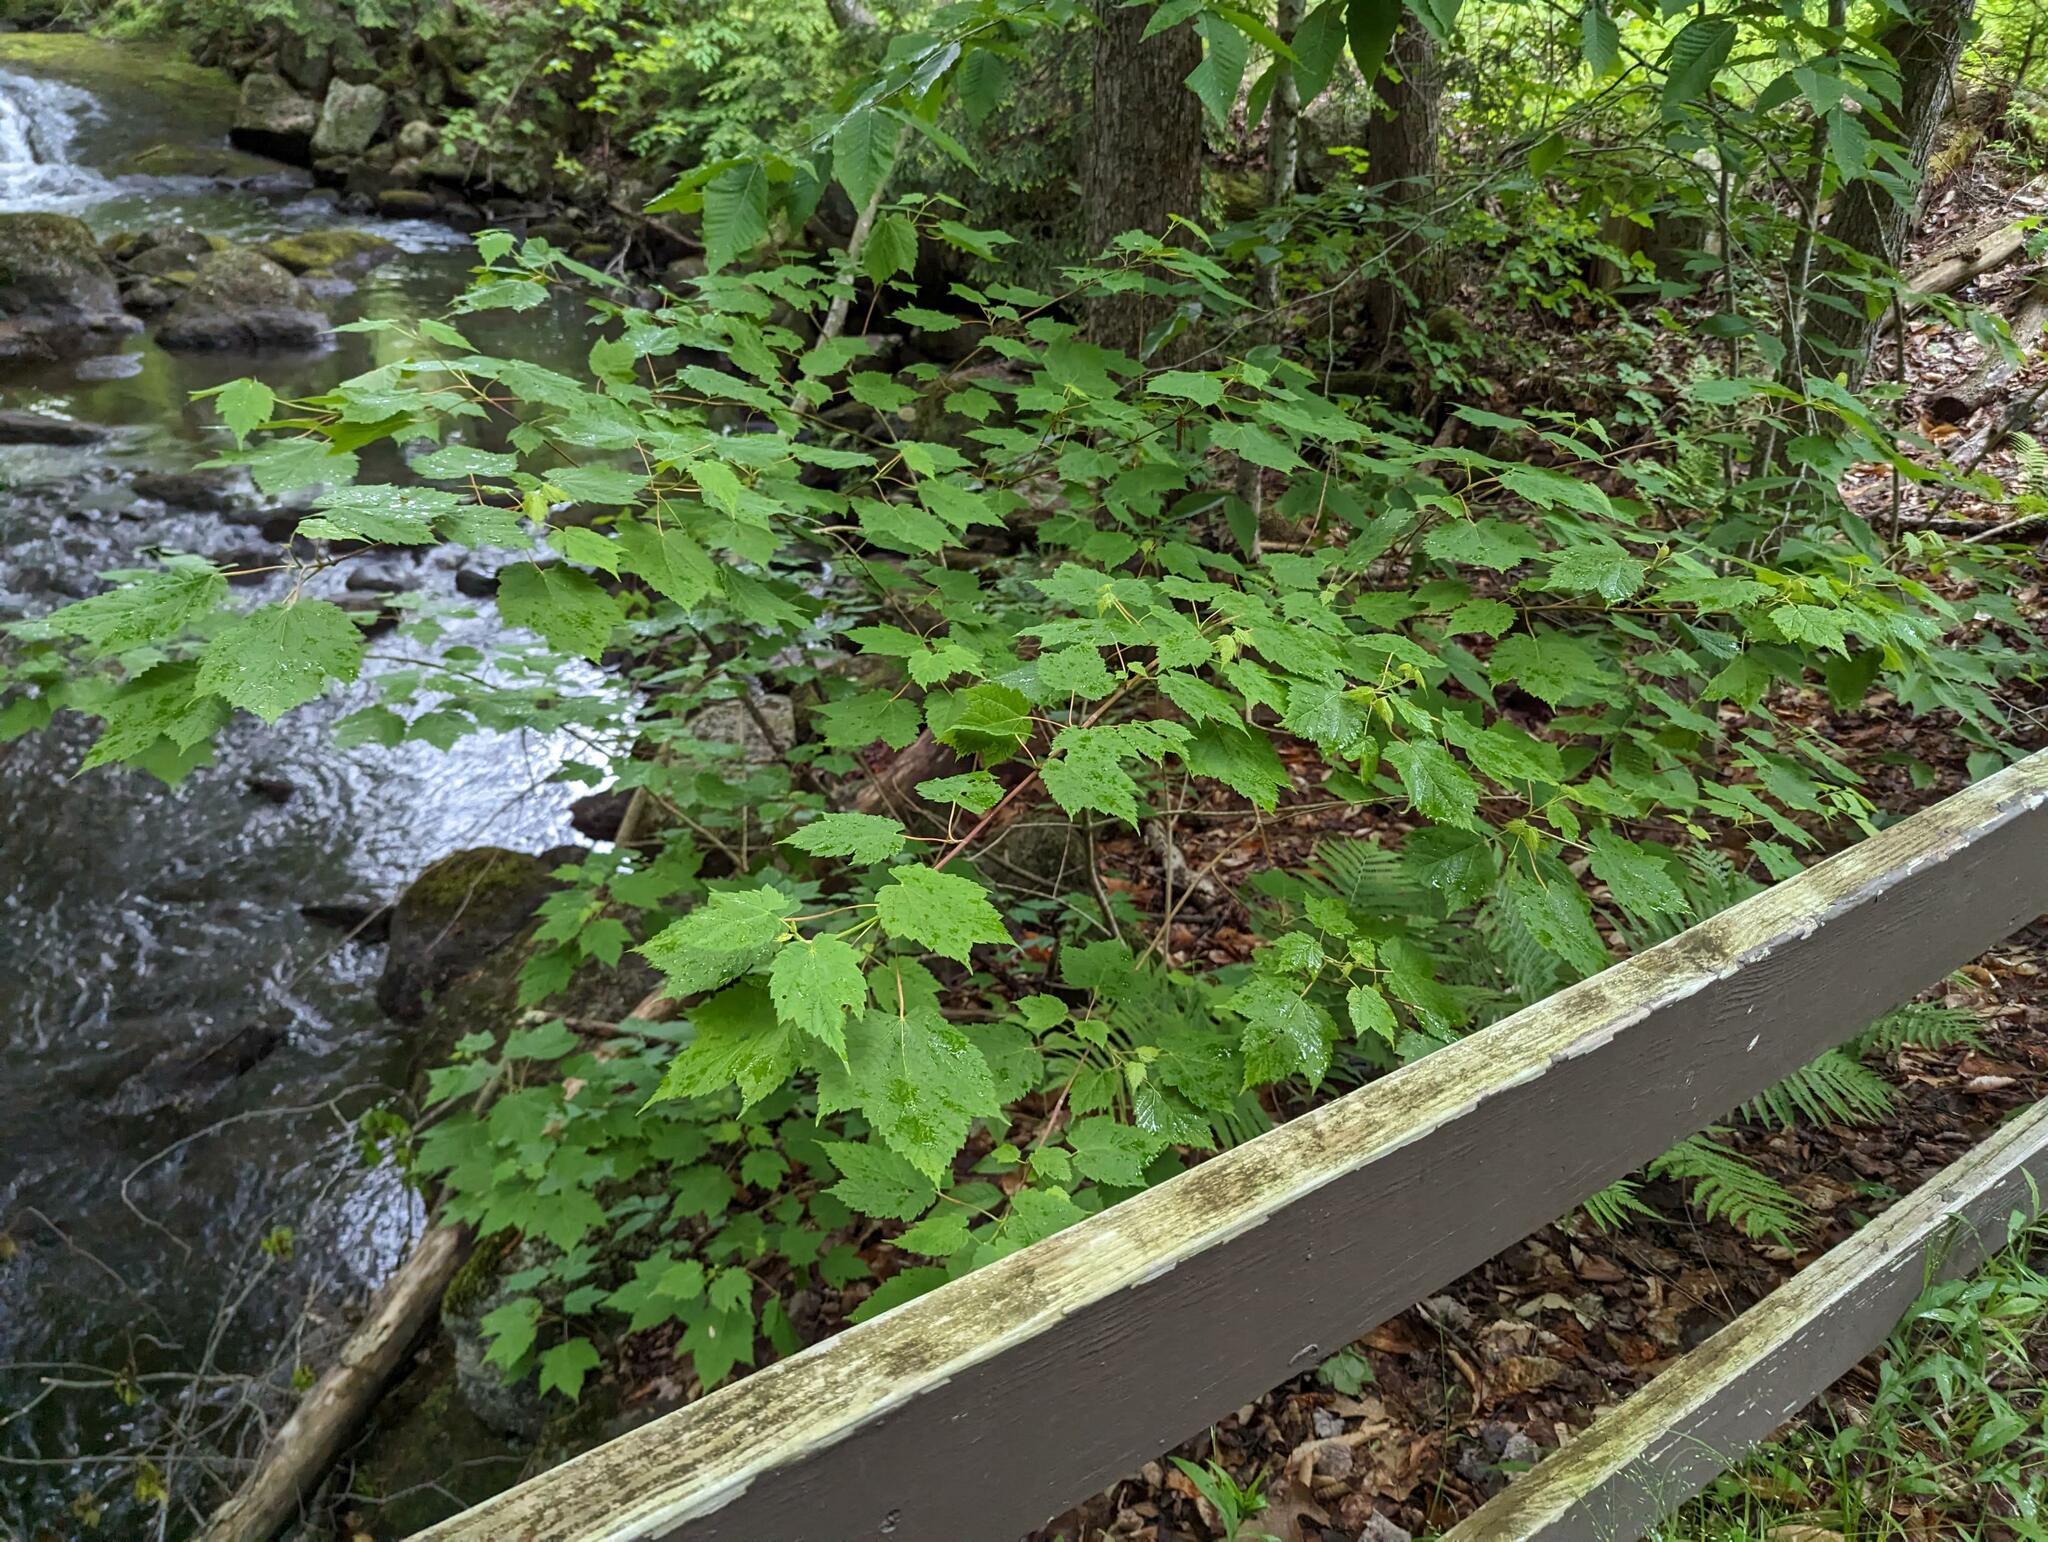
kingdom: Plantae
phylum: Tracheophyta
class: Magnoliopsida
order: Sapindales
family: Sapindaceae
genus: Acer
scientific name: Acer spicatum
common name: Mountain maple
